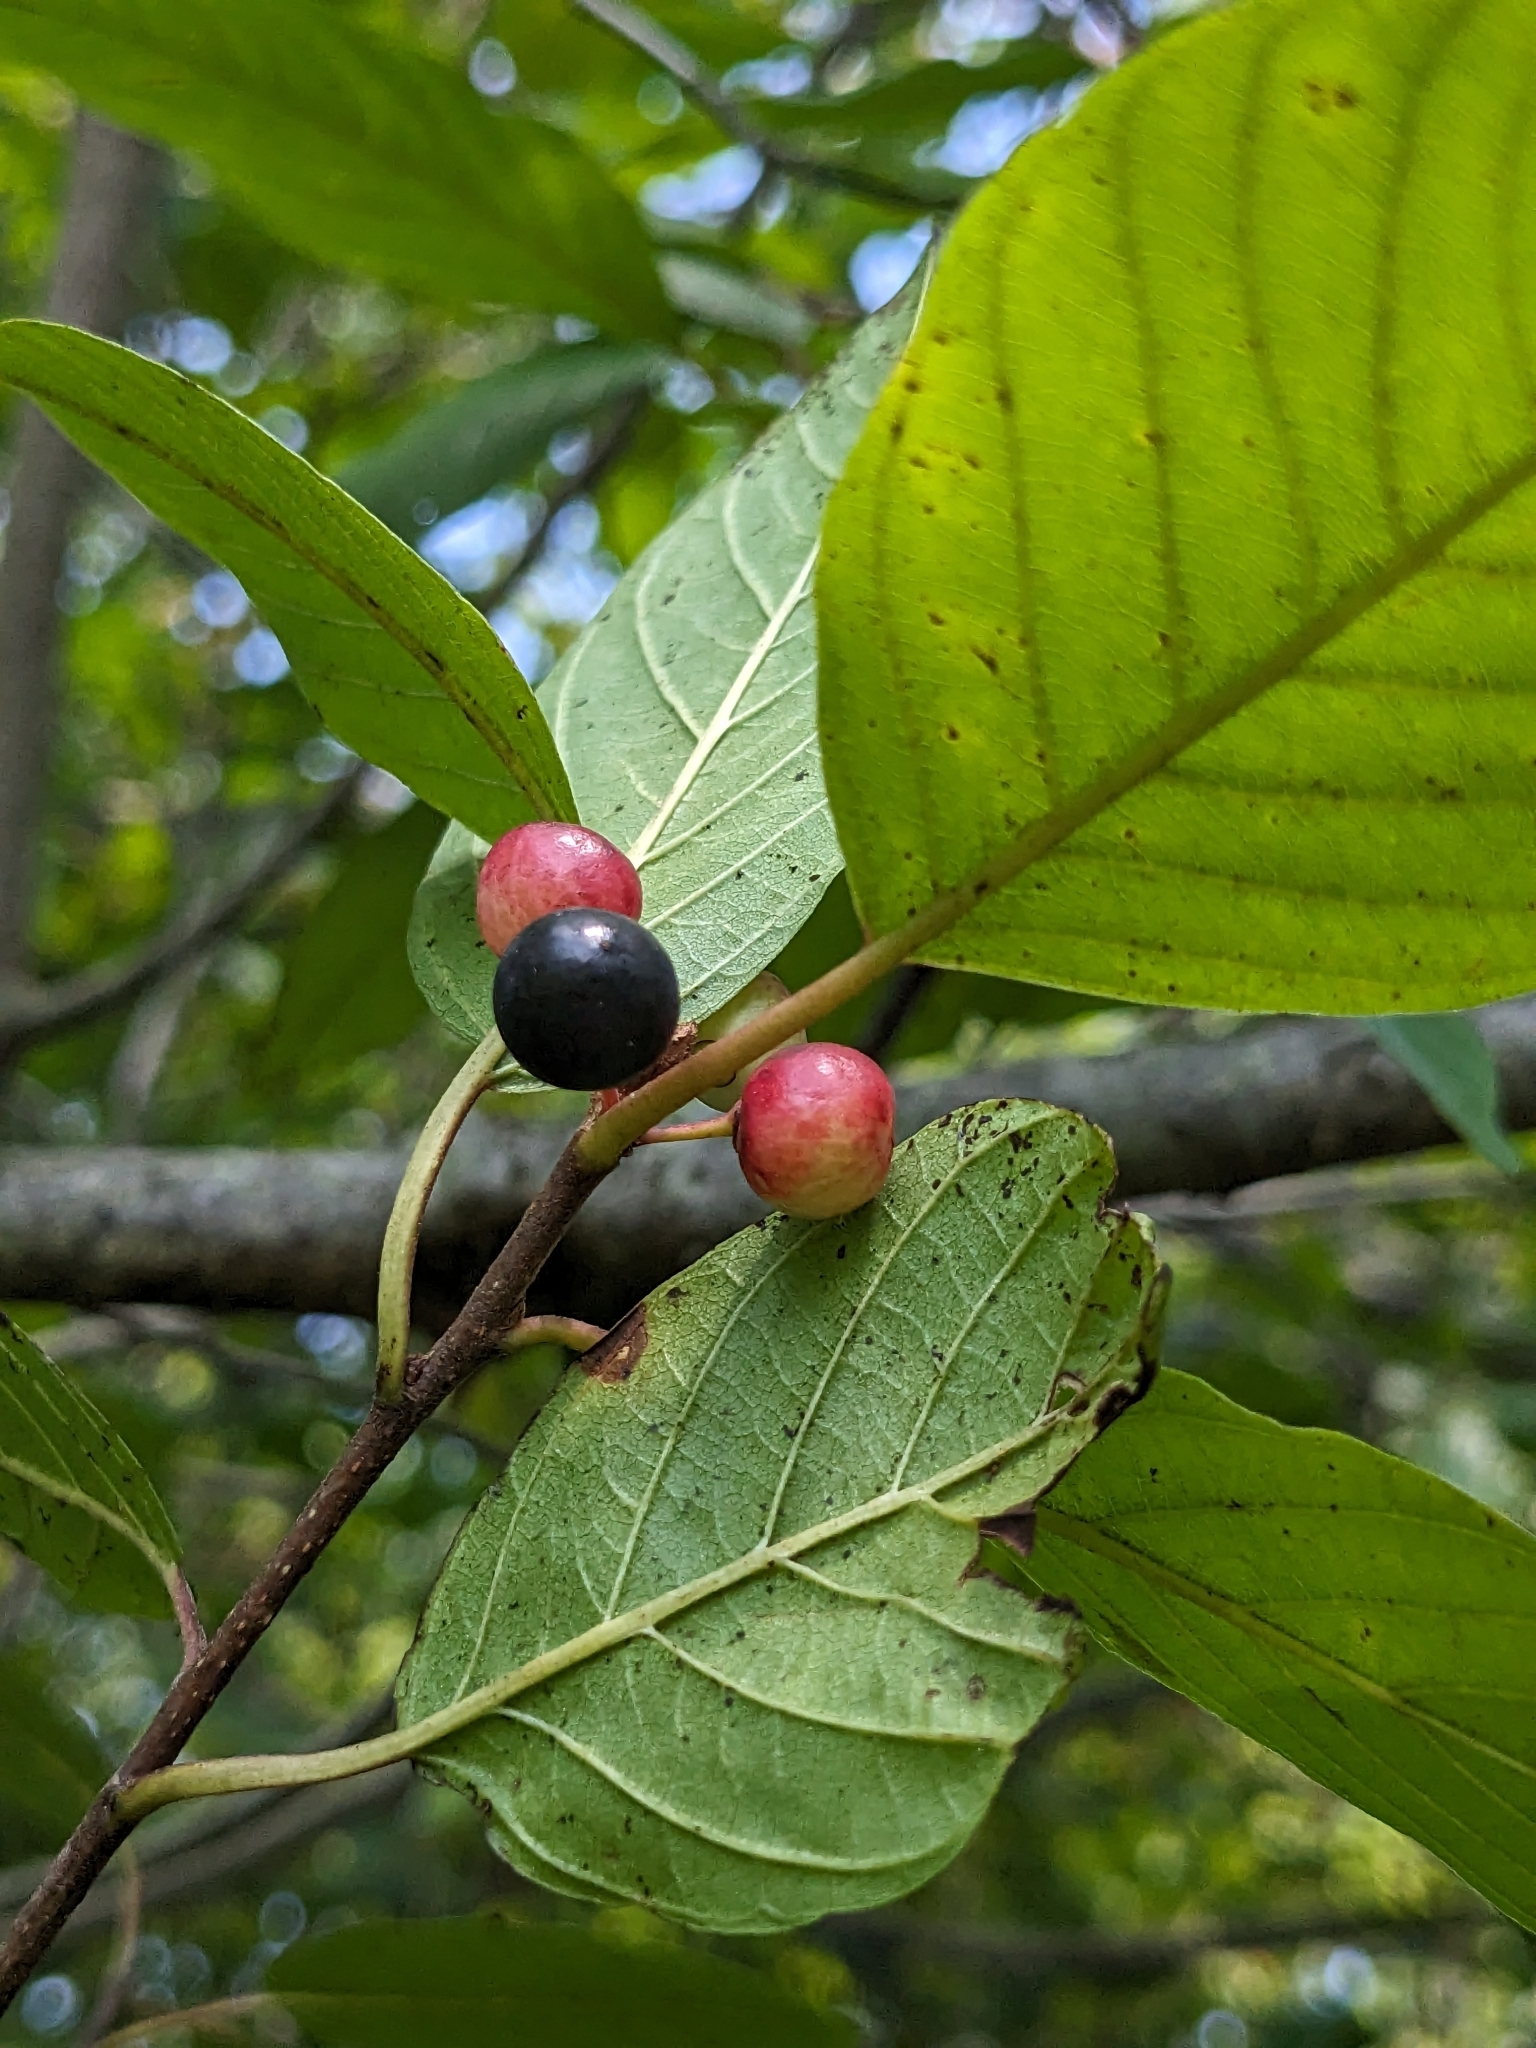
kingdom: Plantae
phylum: Tracheophyta
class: Magnoliopsida
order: Rosales
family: Rhamnaceae
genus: Frangula
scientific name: Frangula alnus
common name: Alder buckthorn
